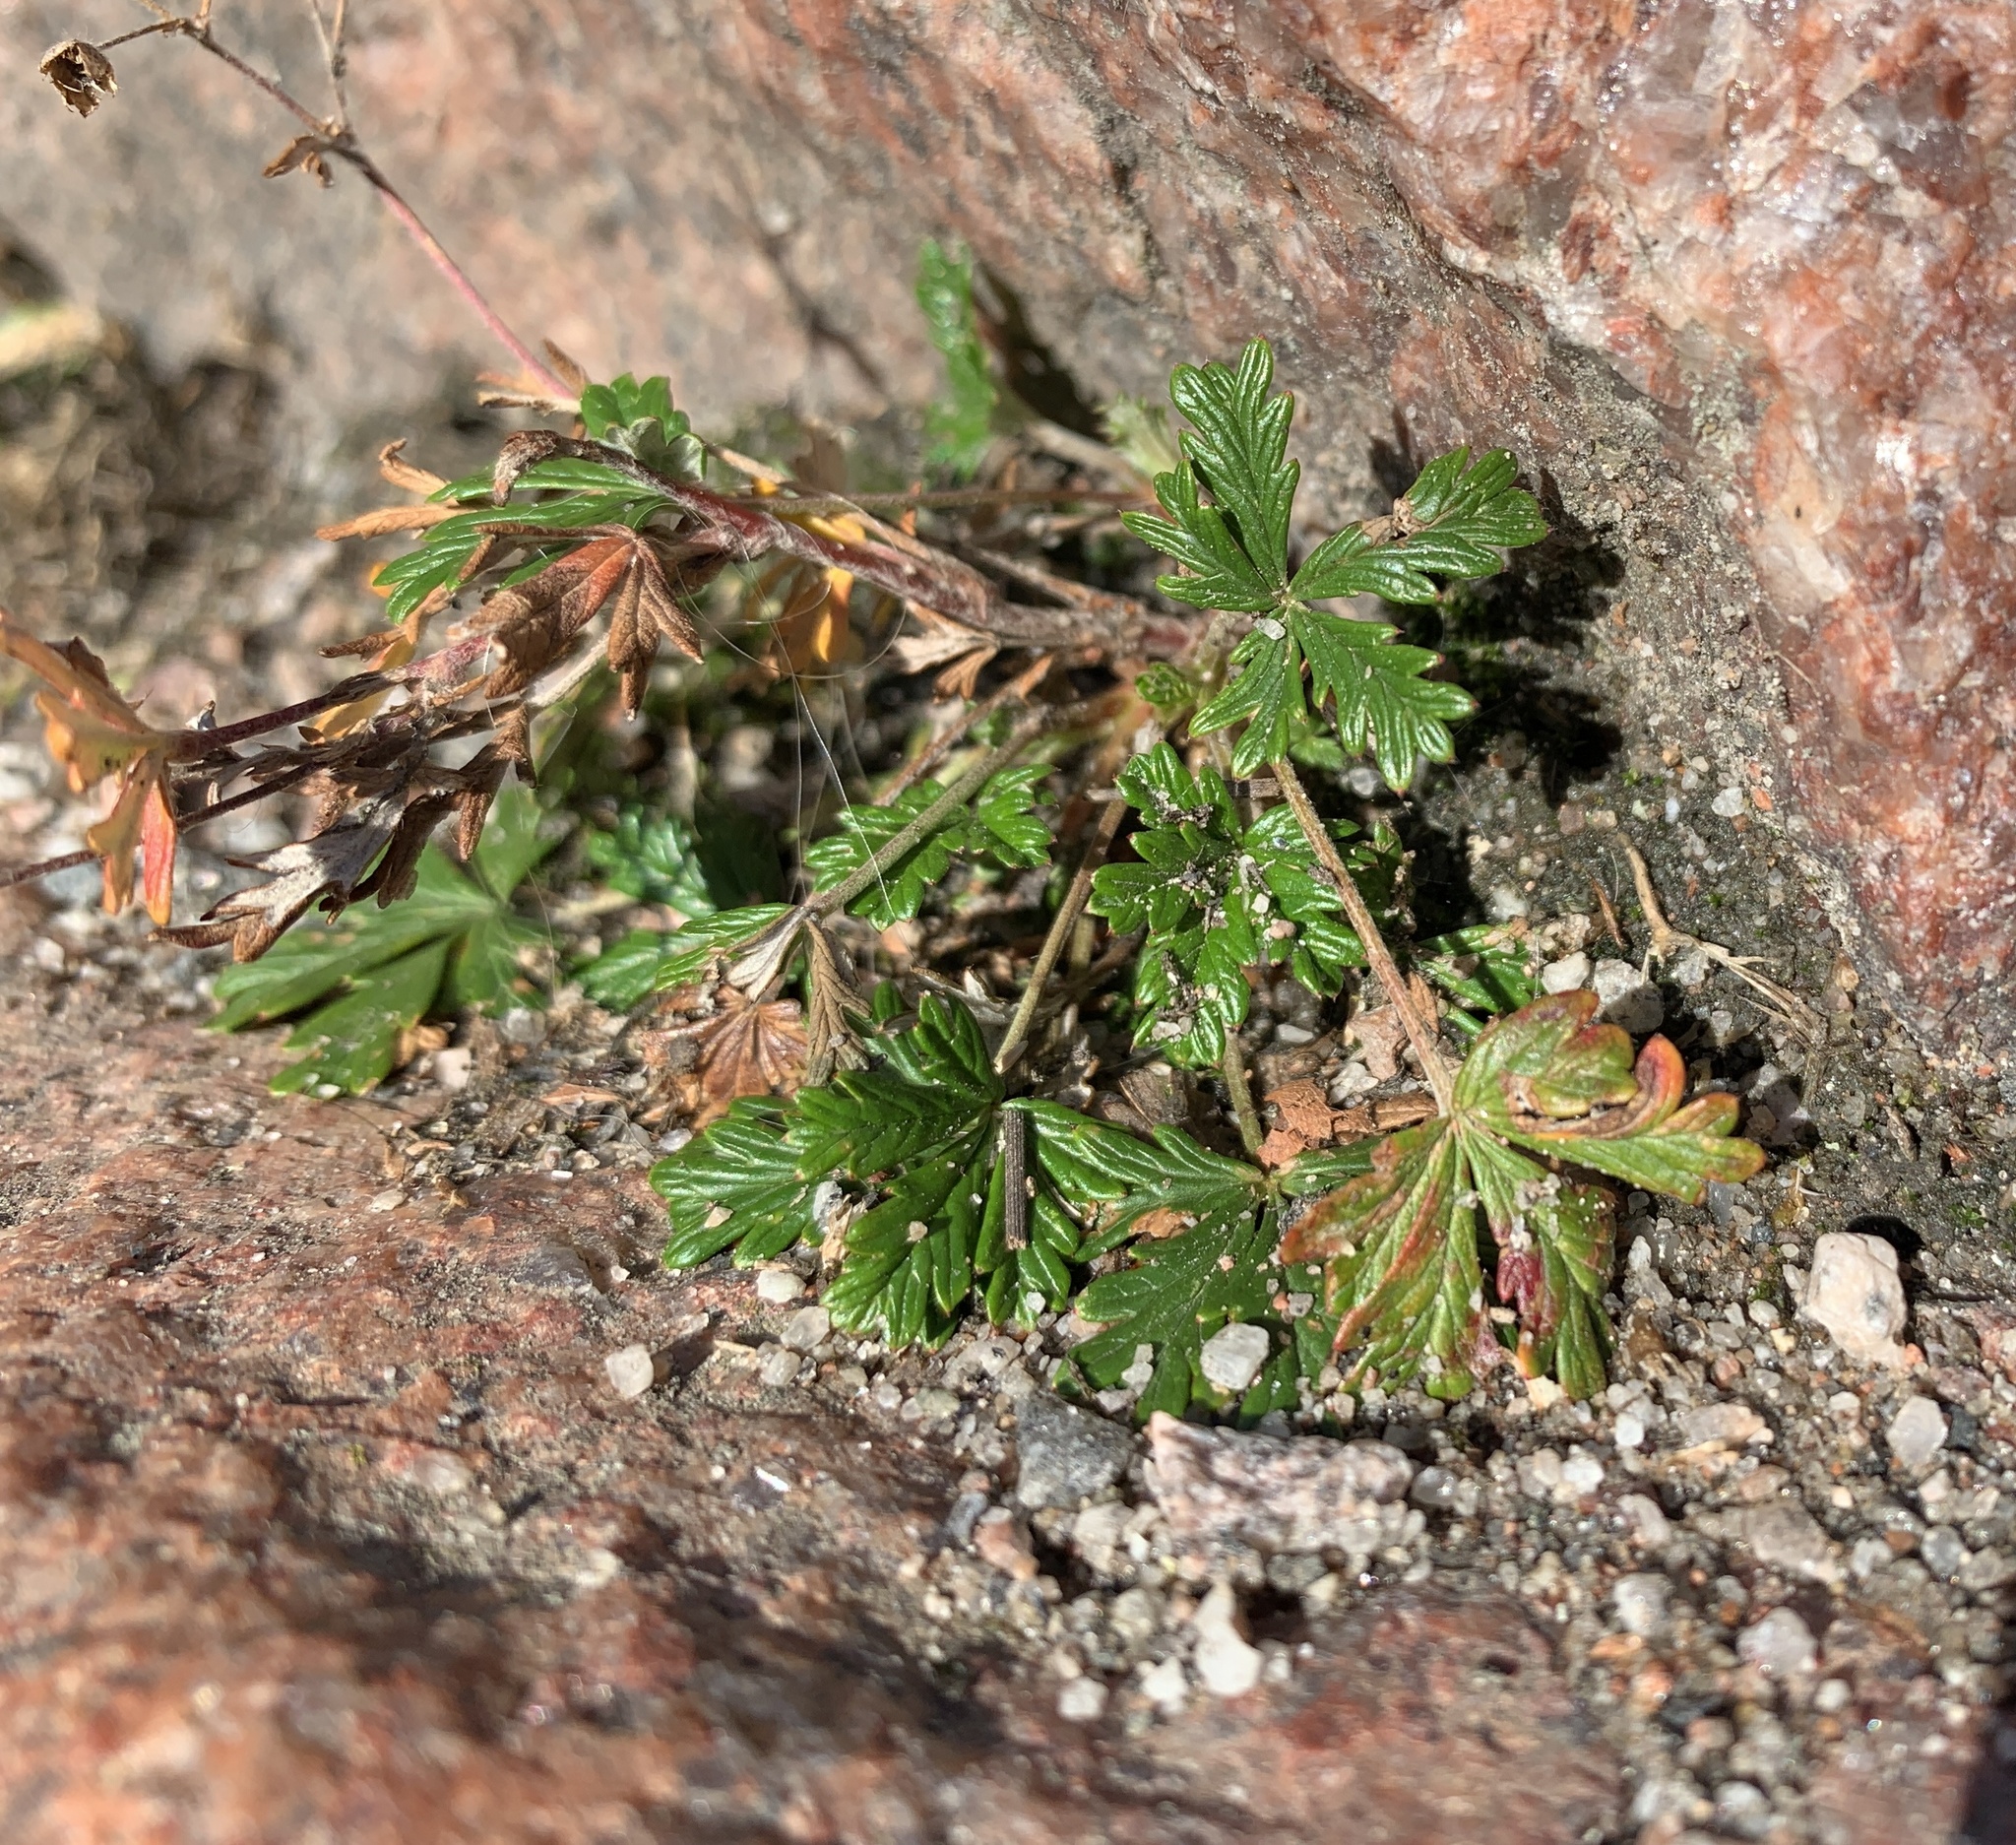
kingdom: Plantae
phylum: Tracheophyta
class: Magnoliopsida
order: Rosales
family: Rosaceae
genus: Potentilla
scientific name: Potentilla argentea
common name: Hoary cinquefoil
